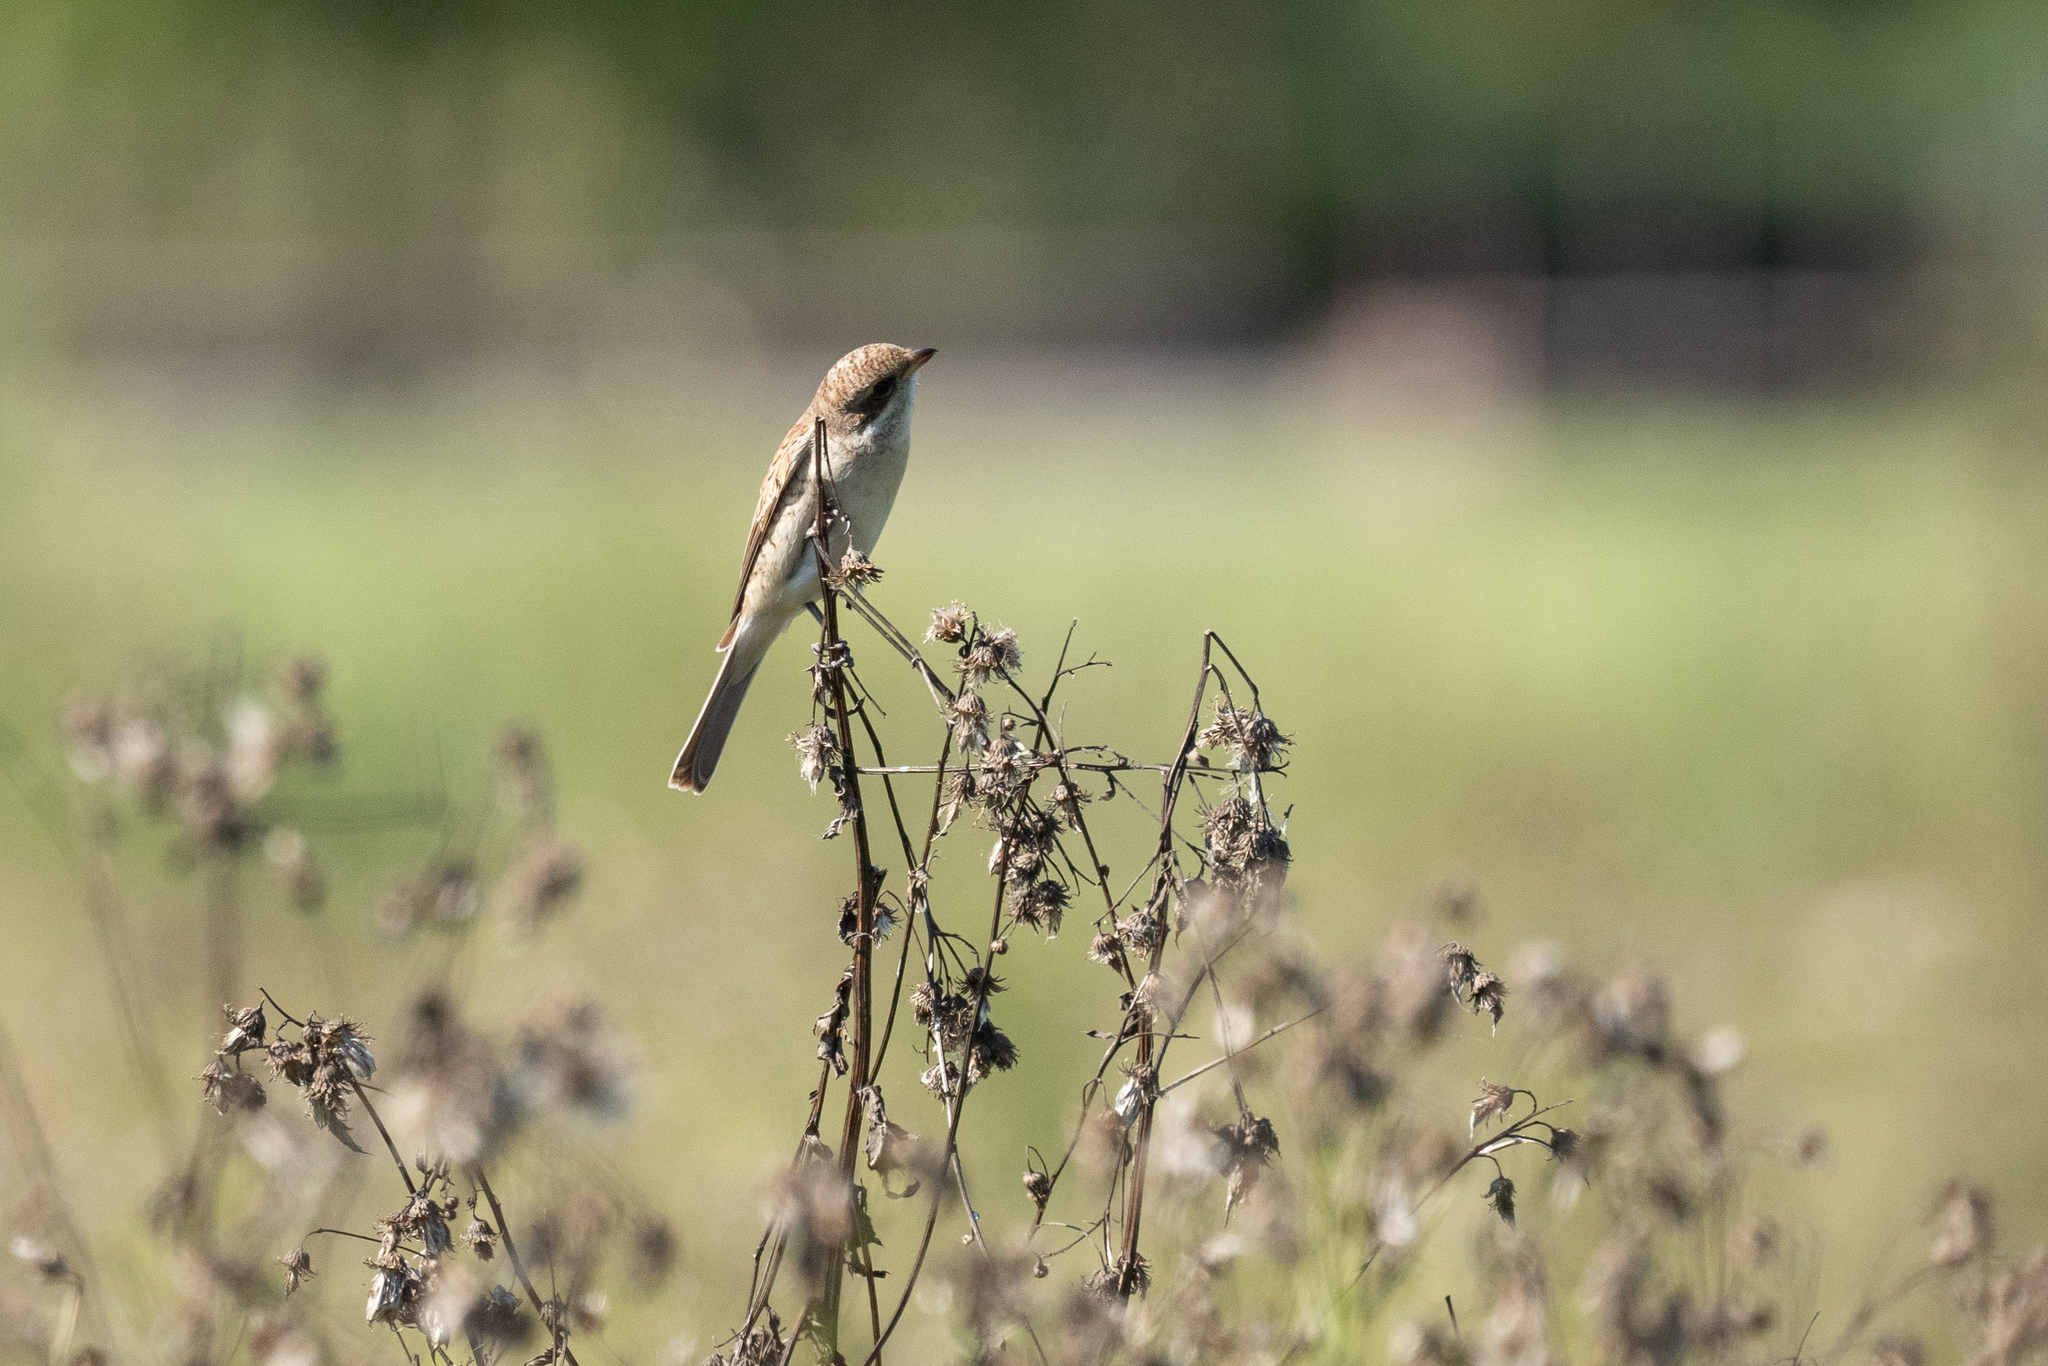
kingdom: Animalia
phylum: Chordata
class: Aves
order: Passeriformes
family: Laniidae
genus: Lanius
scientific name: Lanius collurio
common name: Red-backed shrike
